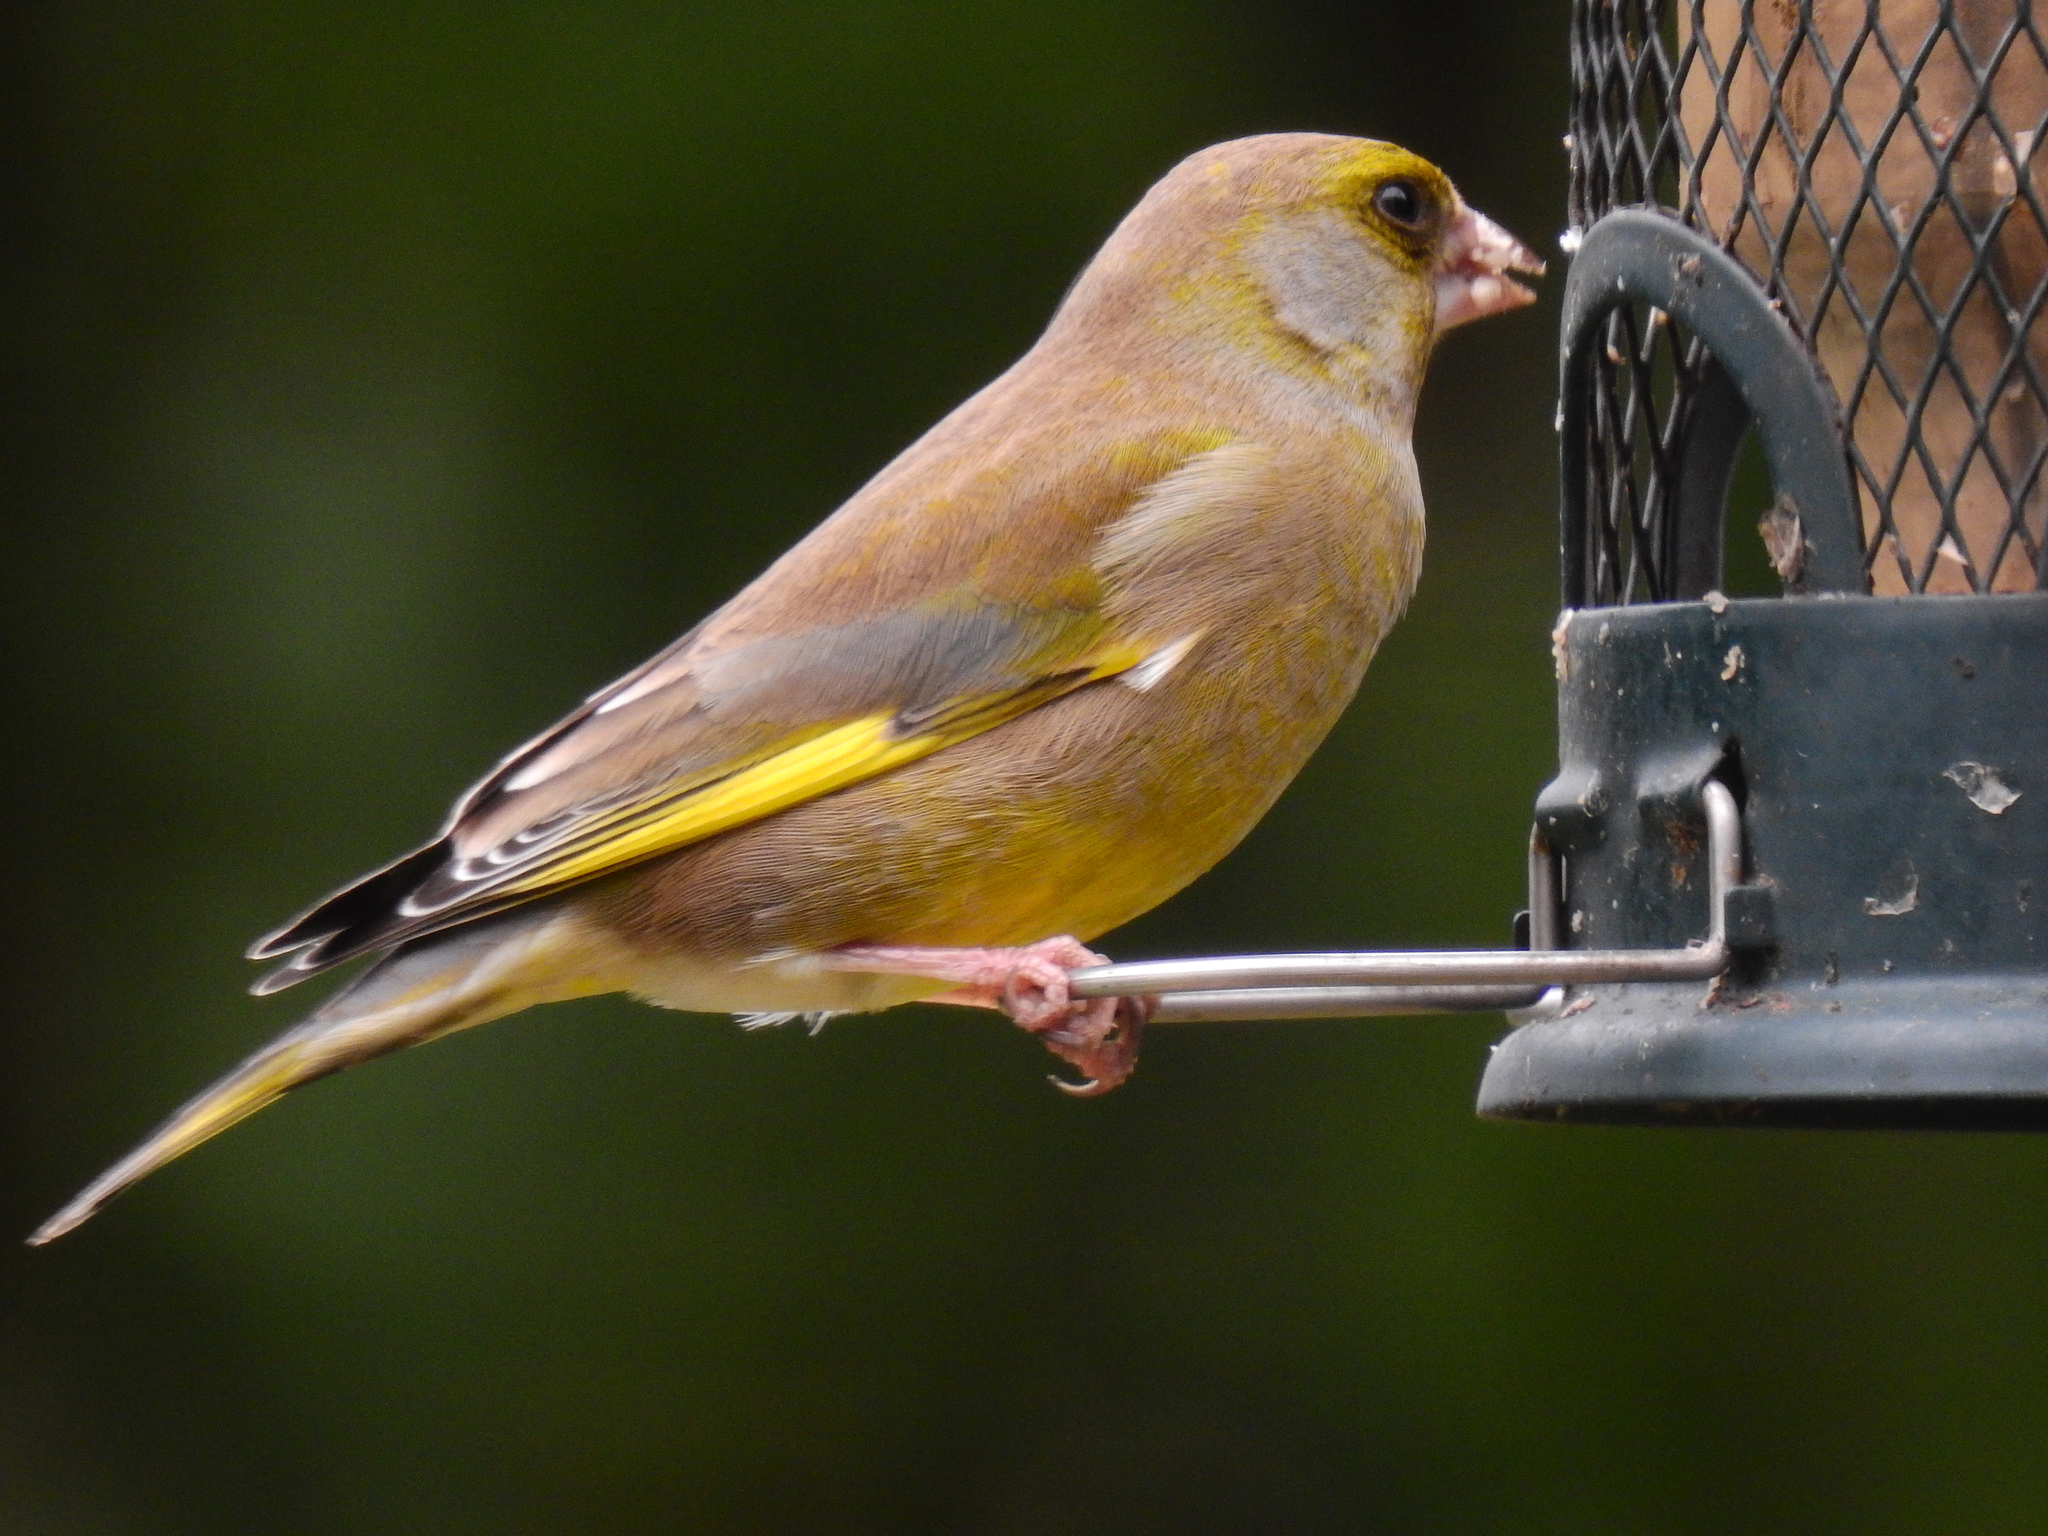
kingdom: Plantae
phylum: Tracheophyta
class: Liliopsida
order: Poales
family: Poaceae
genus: Chloris
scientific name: Chloris chloris
